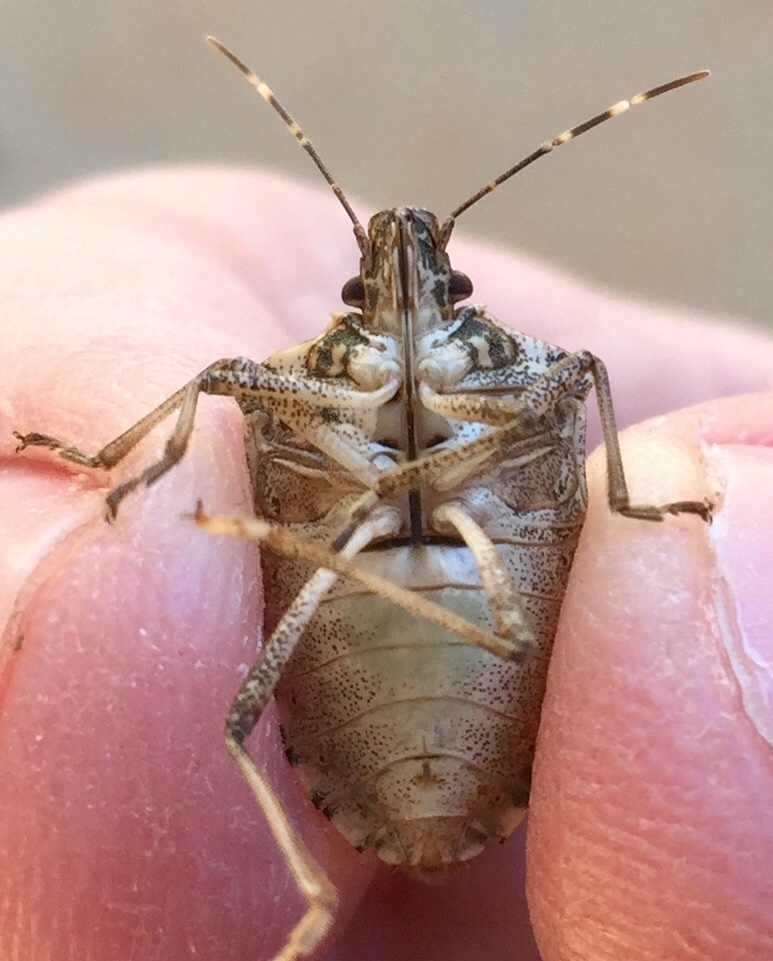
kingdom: Animalia
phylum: Arthropoda
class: Insecta
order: Hemiptera
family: Pentatomidae
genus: Halyomorpha
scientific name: Halyomorpha halys
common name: Brown marmorated stink bug
